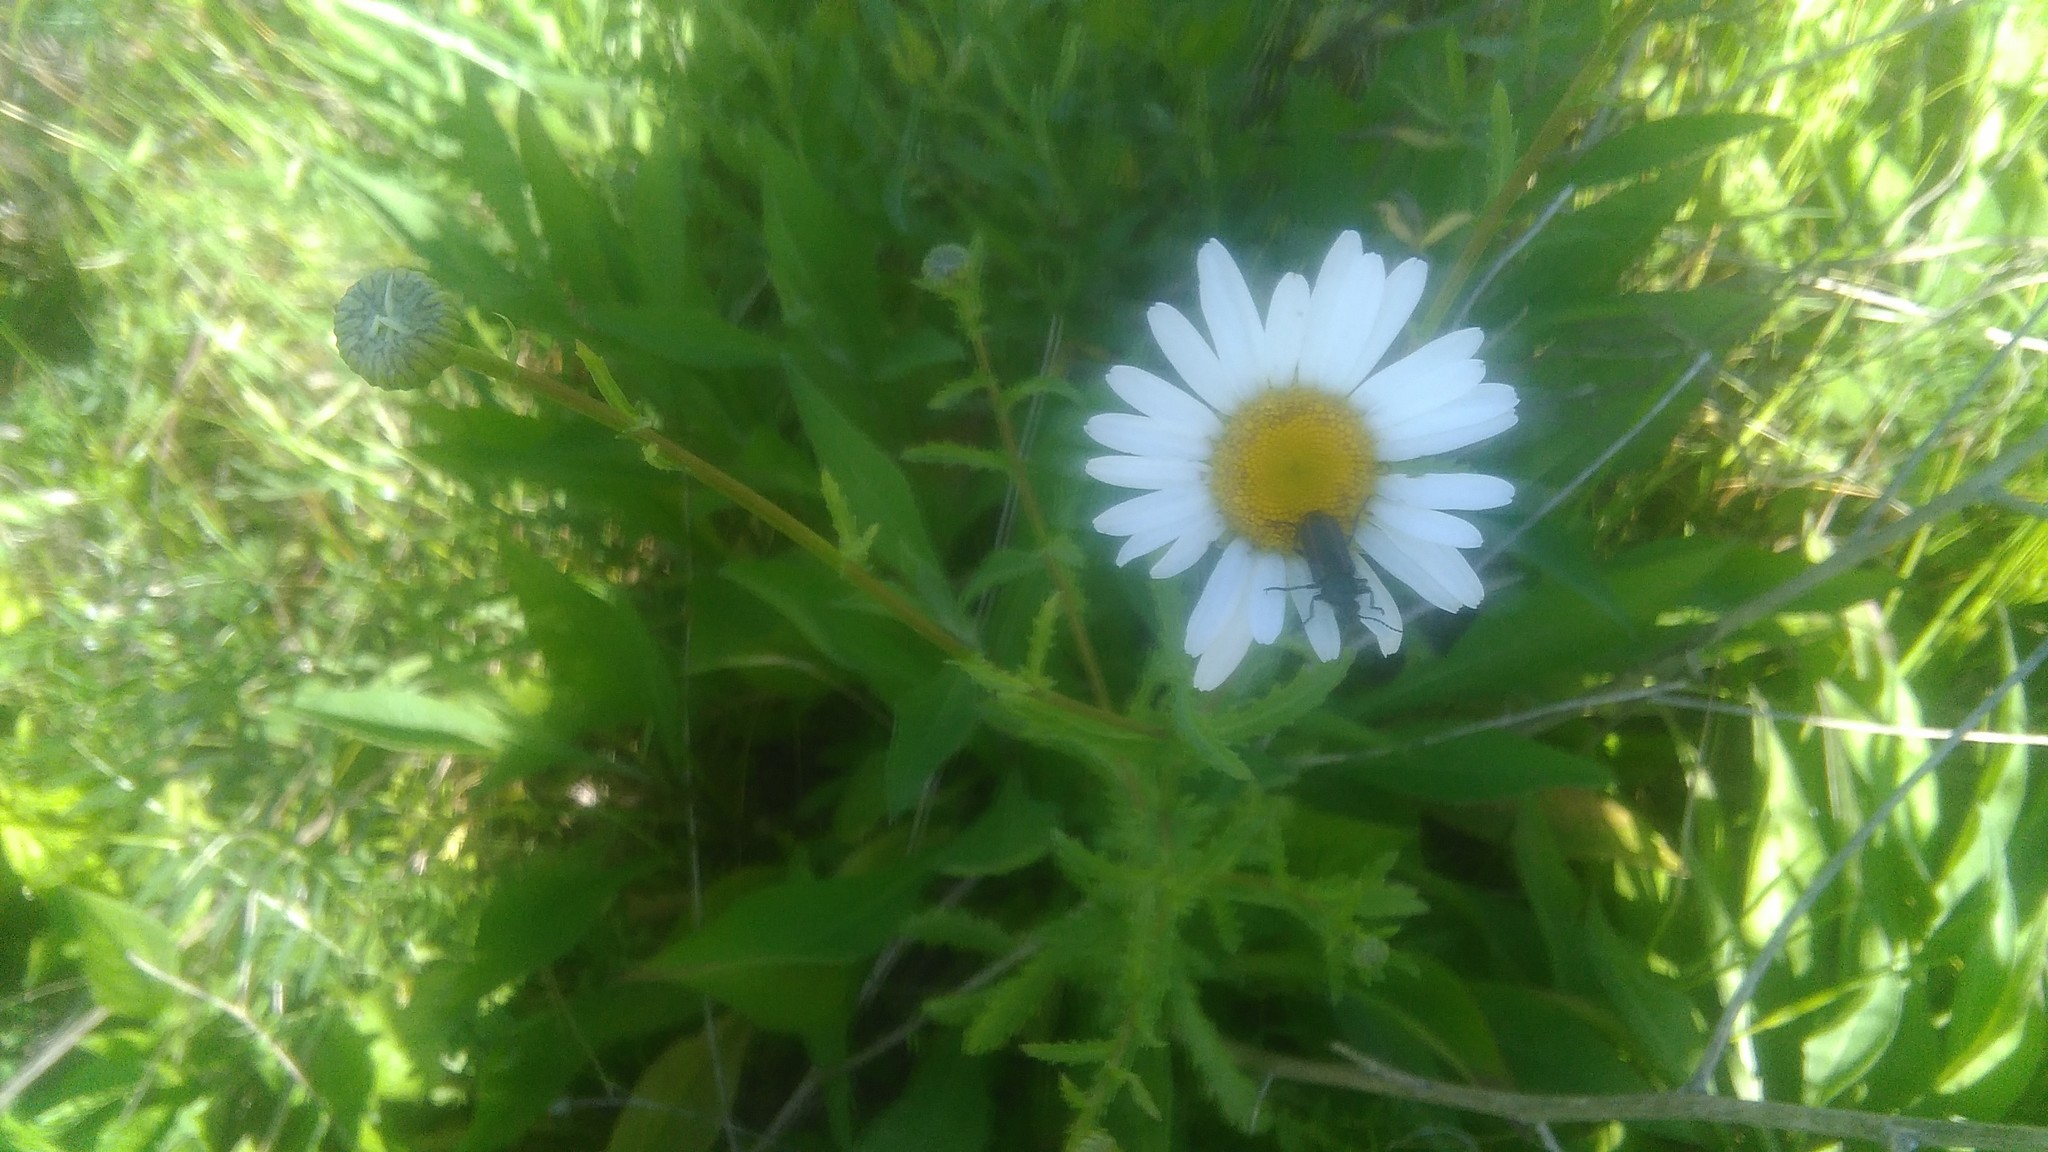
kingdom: Animalia
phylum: Arthropoda
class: Insecta
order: Coleoptera
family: Melyridae
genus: Astylus
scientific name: Astylus
